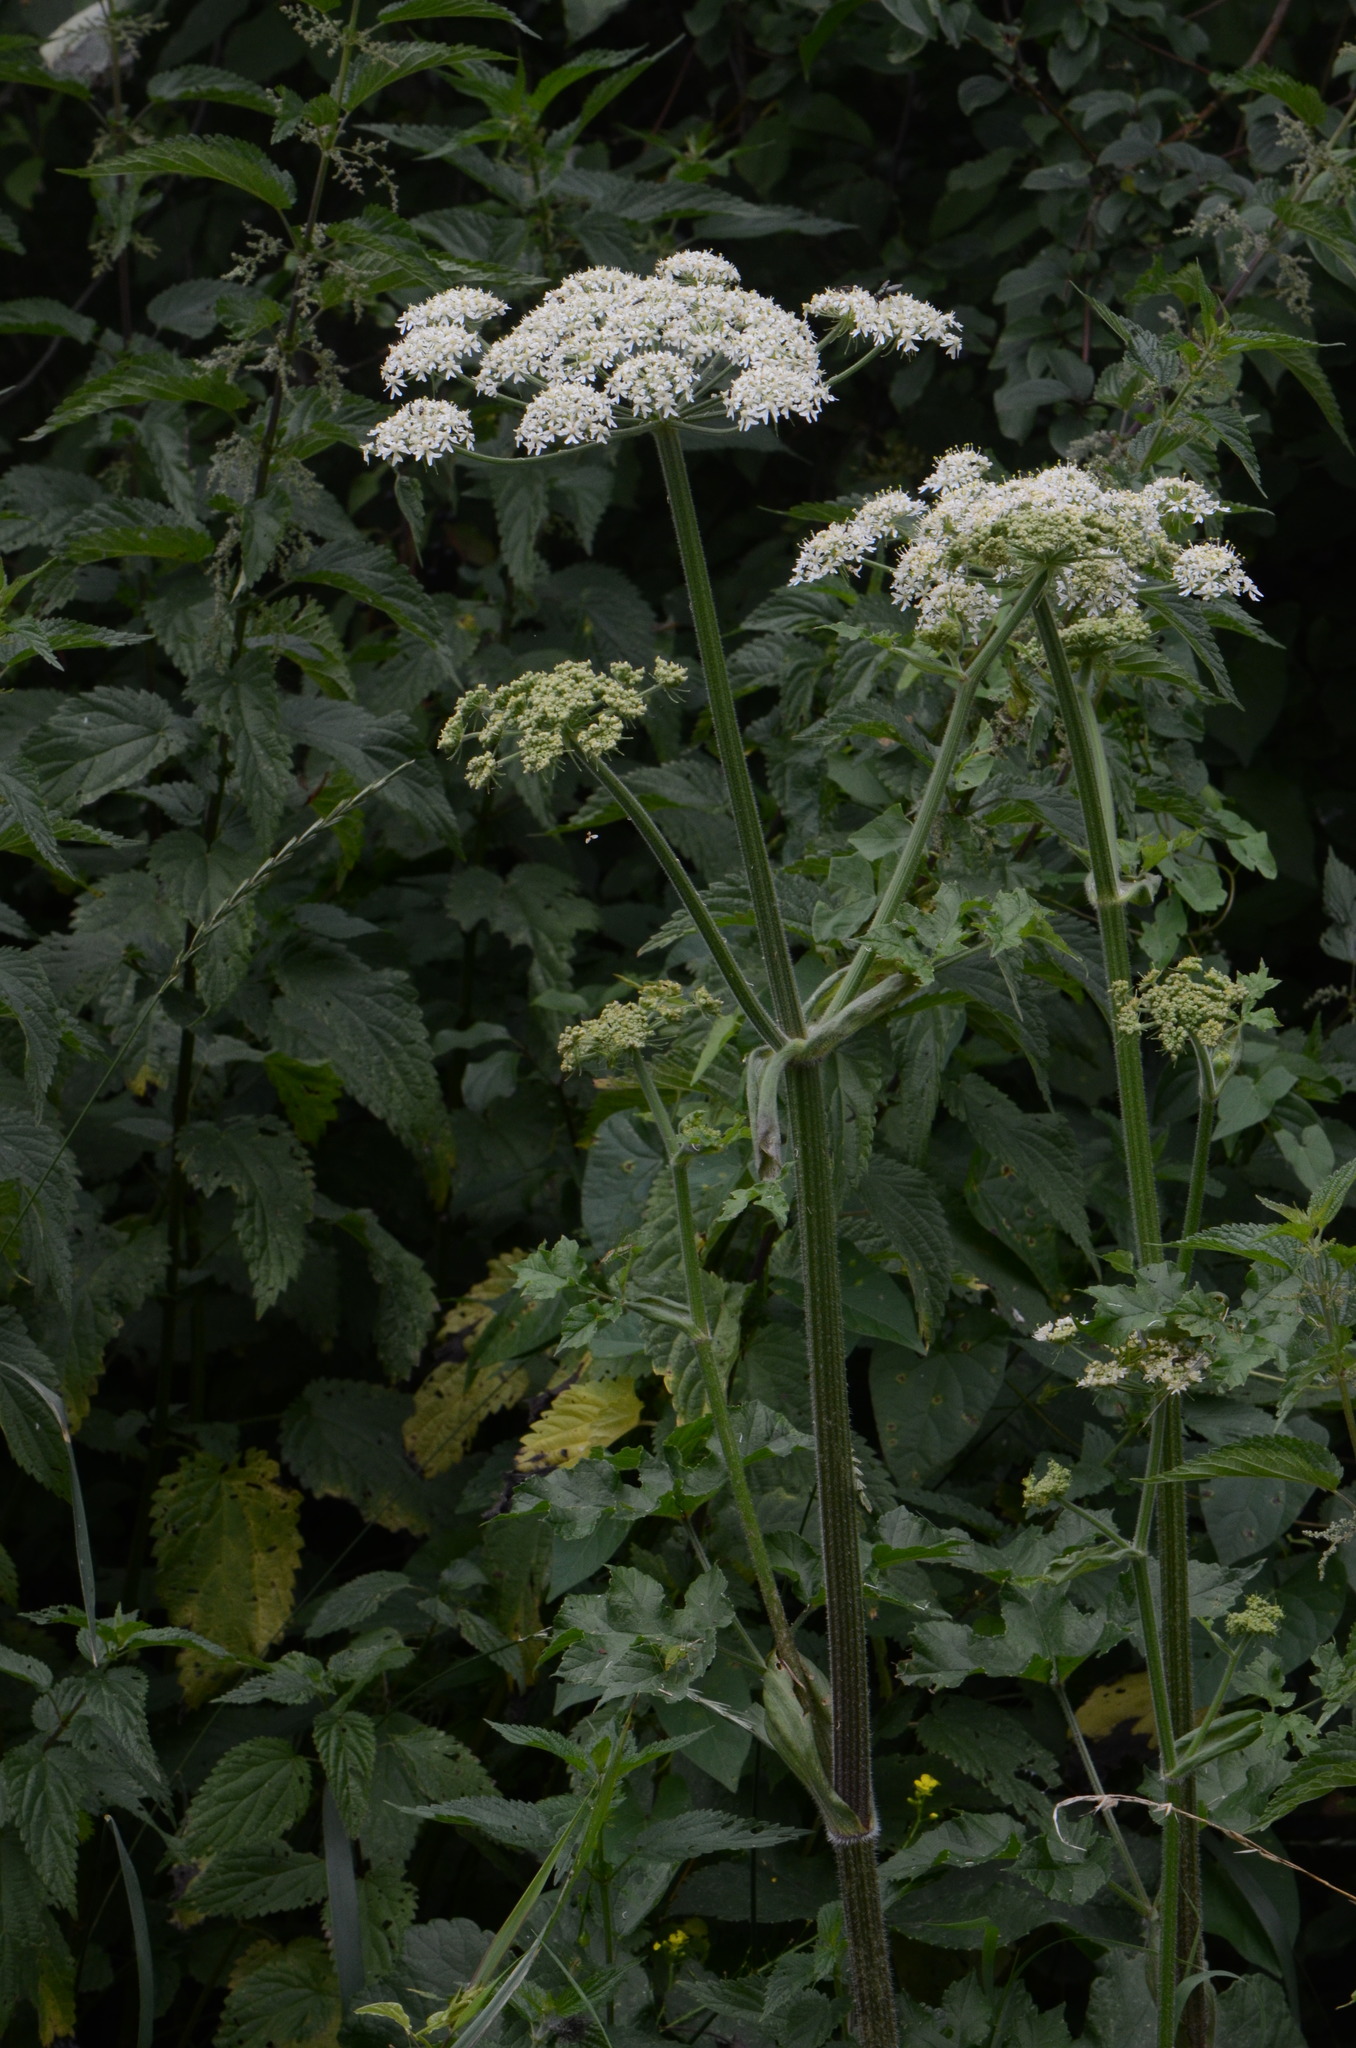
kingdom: Plantae
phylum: Tracheophyta
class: Magnoliopsida
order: Apiales
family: Apiaceae
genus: Heracleum
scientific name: Heracleum sphondylium
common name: Hogweed
